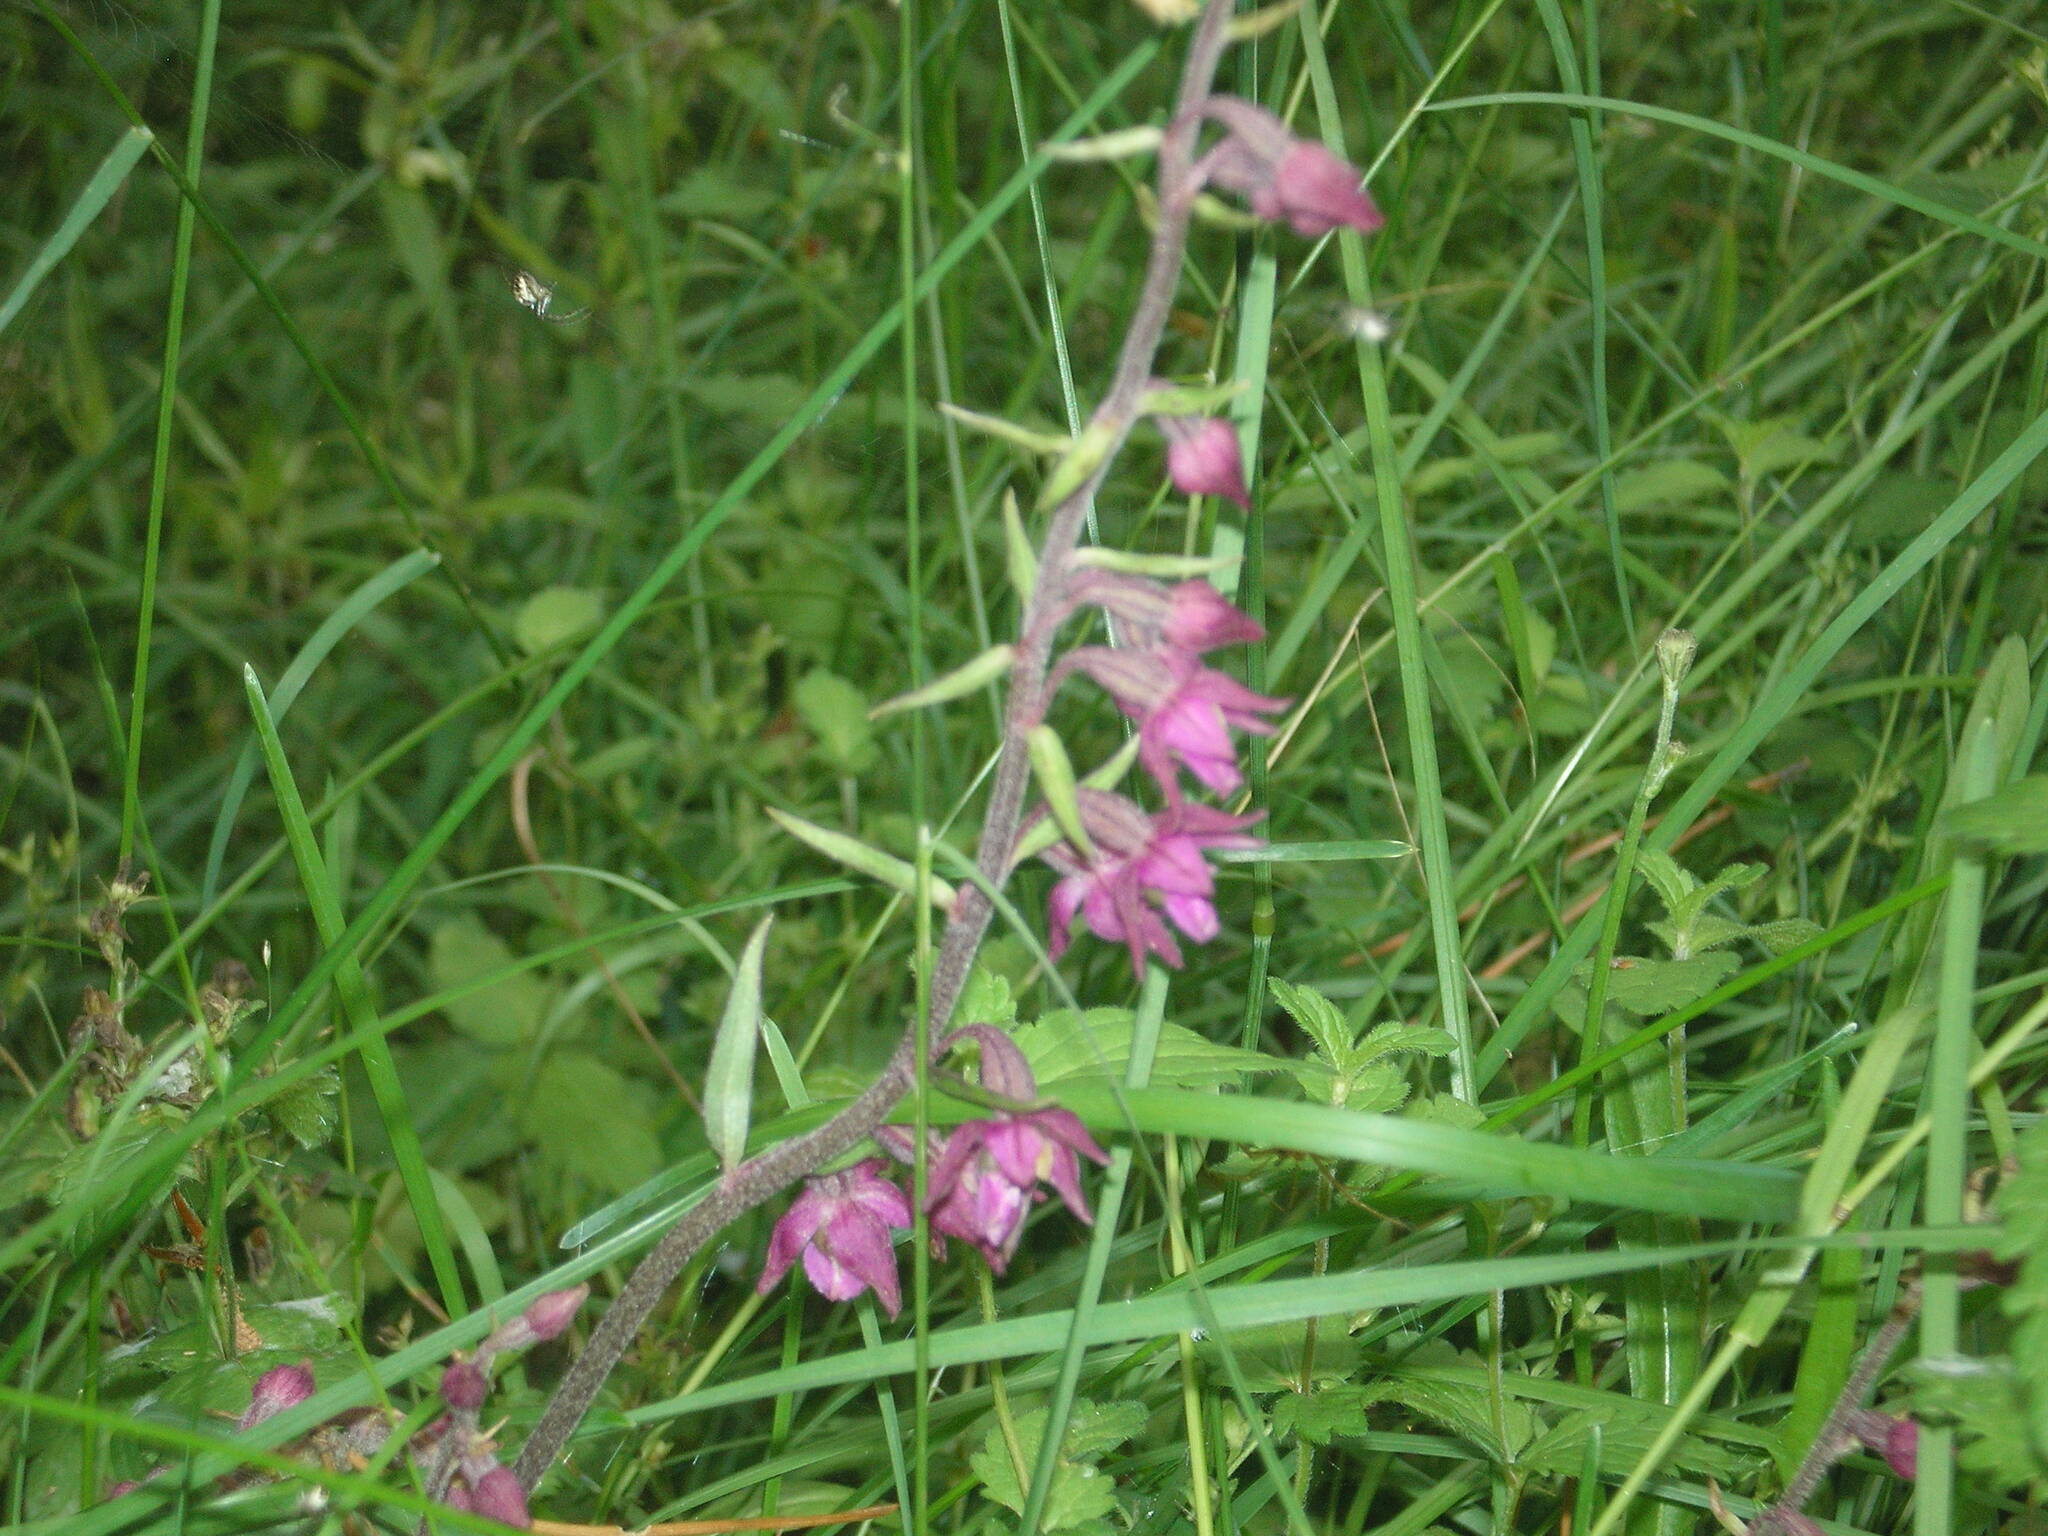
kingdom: Plantae
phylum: Tracheophyta
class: Liliopsida
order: Asparagales
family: Orchidaceae
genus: Epipactis
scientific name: Epipactis atrorubens
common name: Dark-red helleborine
